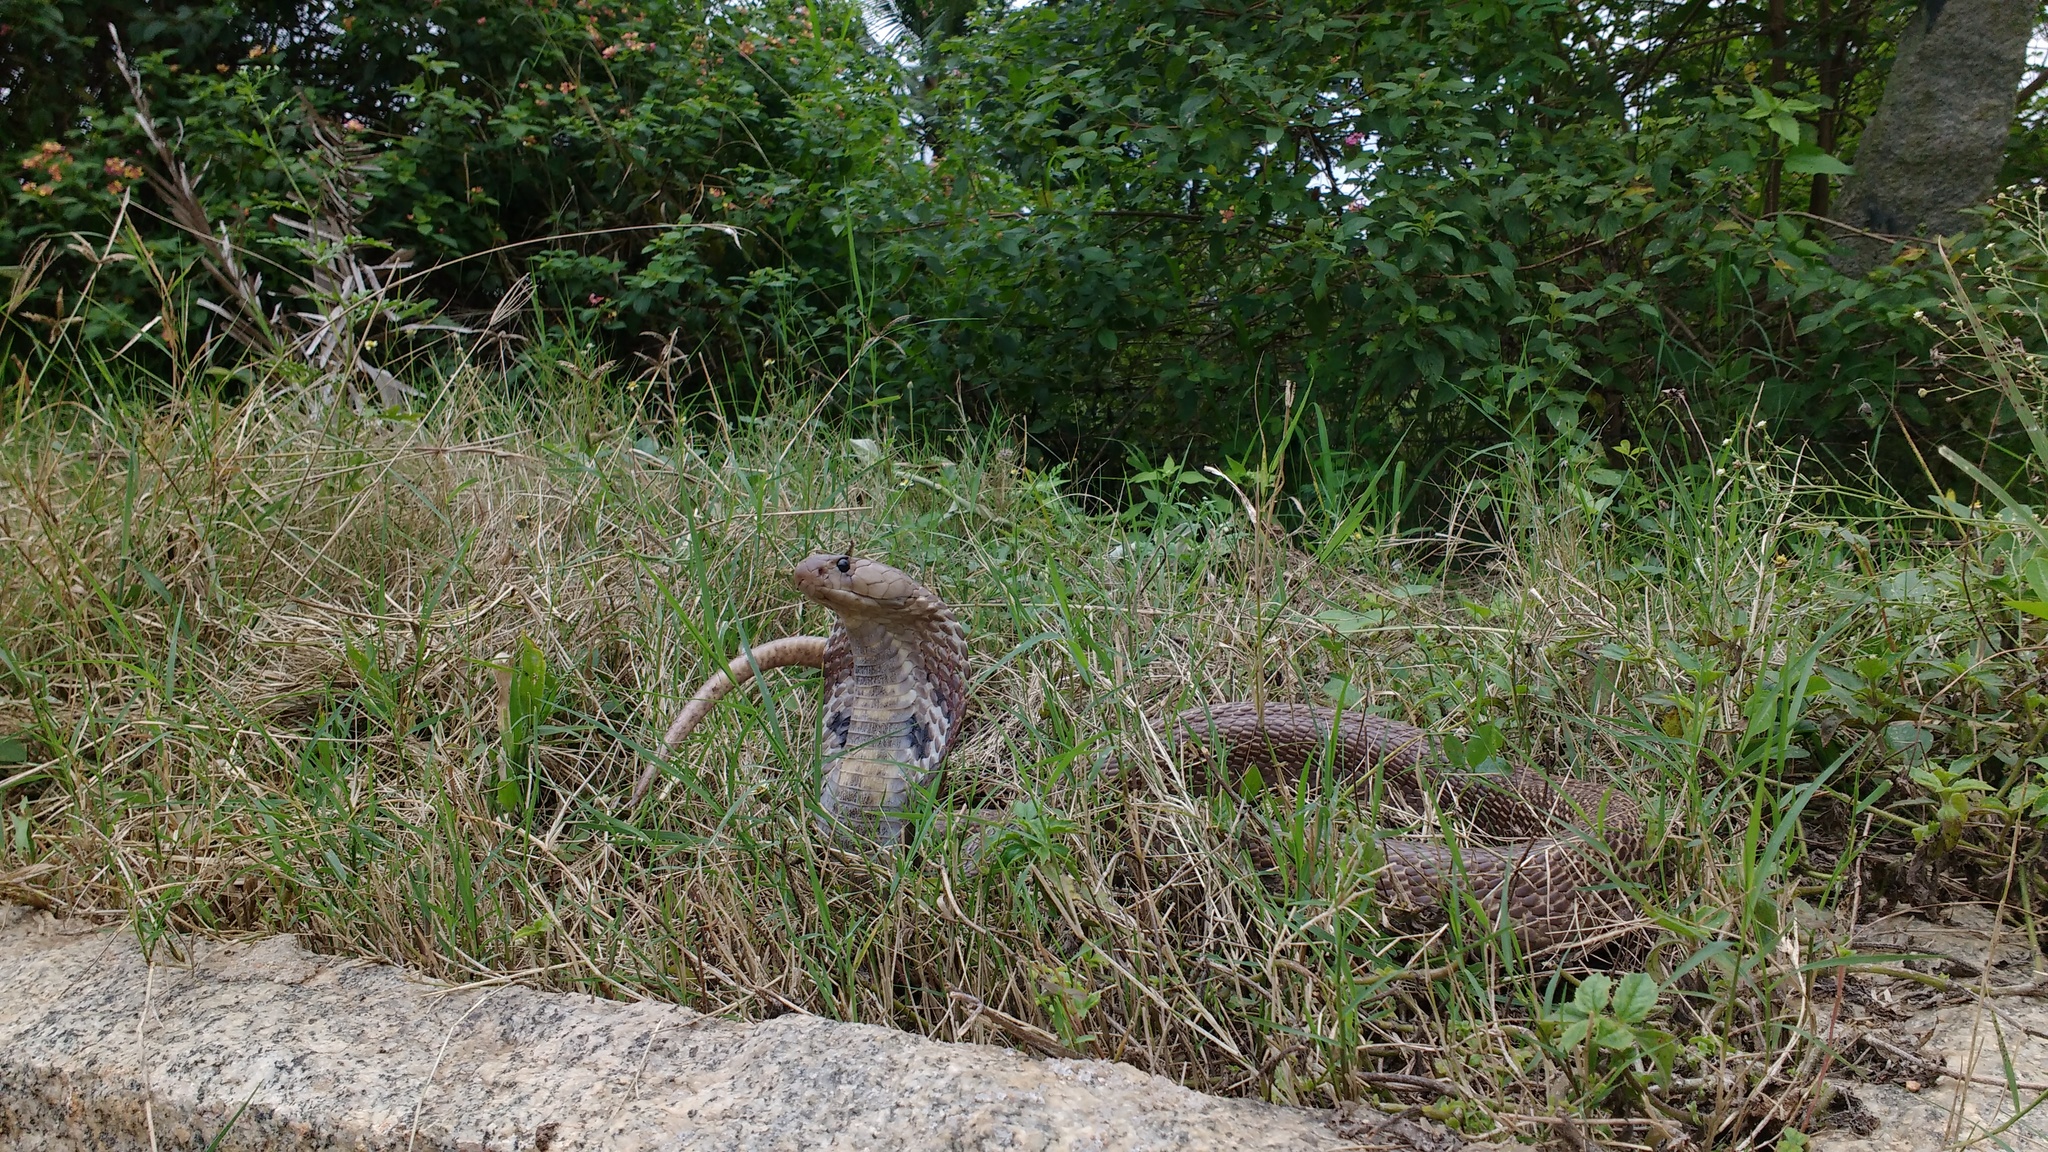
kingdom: Animalia
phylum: Chordata
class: Squamata
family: Elapidae
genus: Naja
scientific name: Naja naja
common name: Indian cobra
